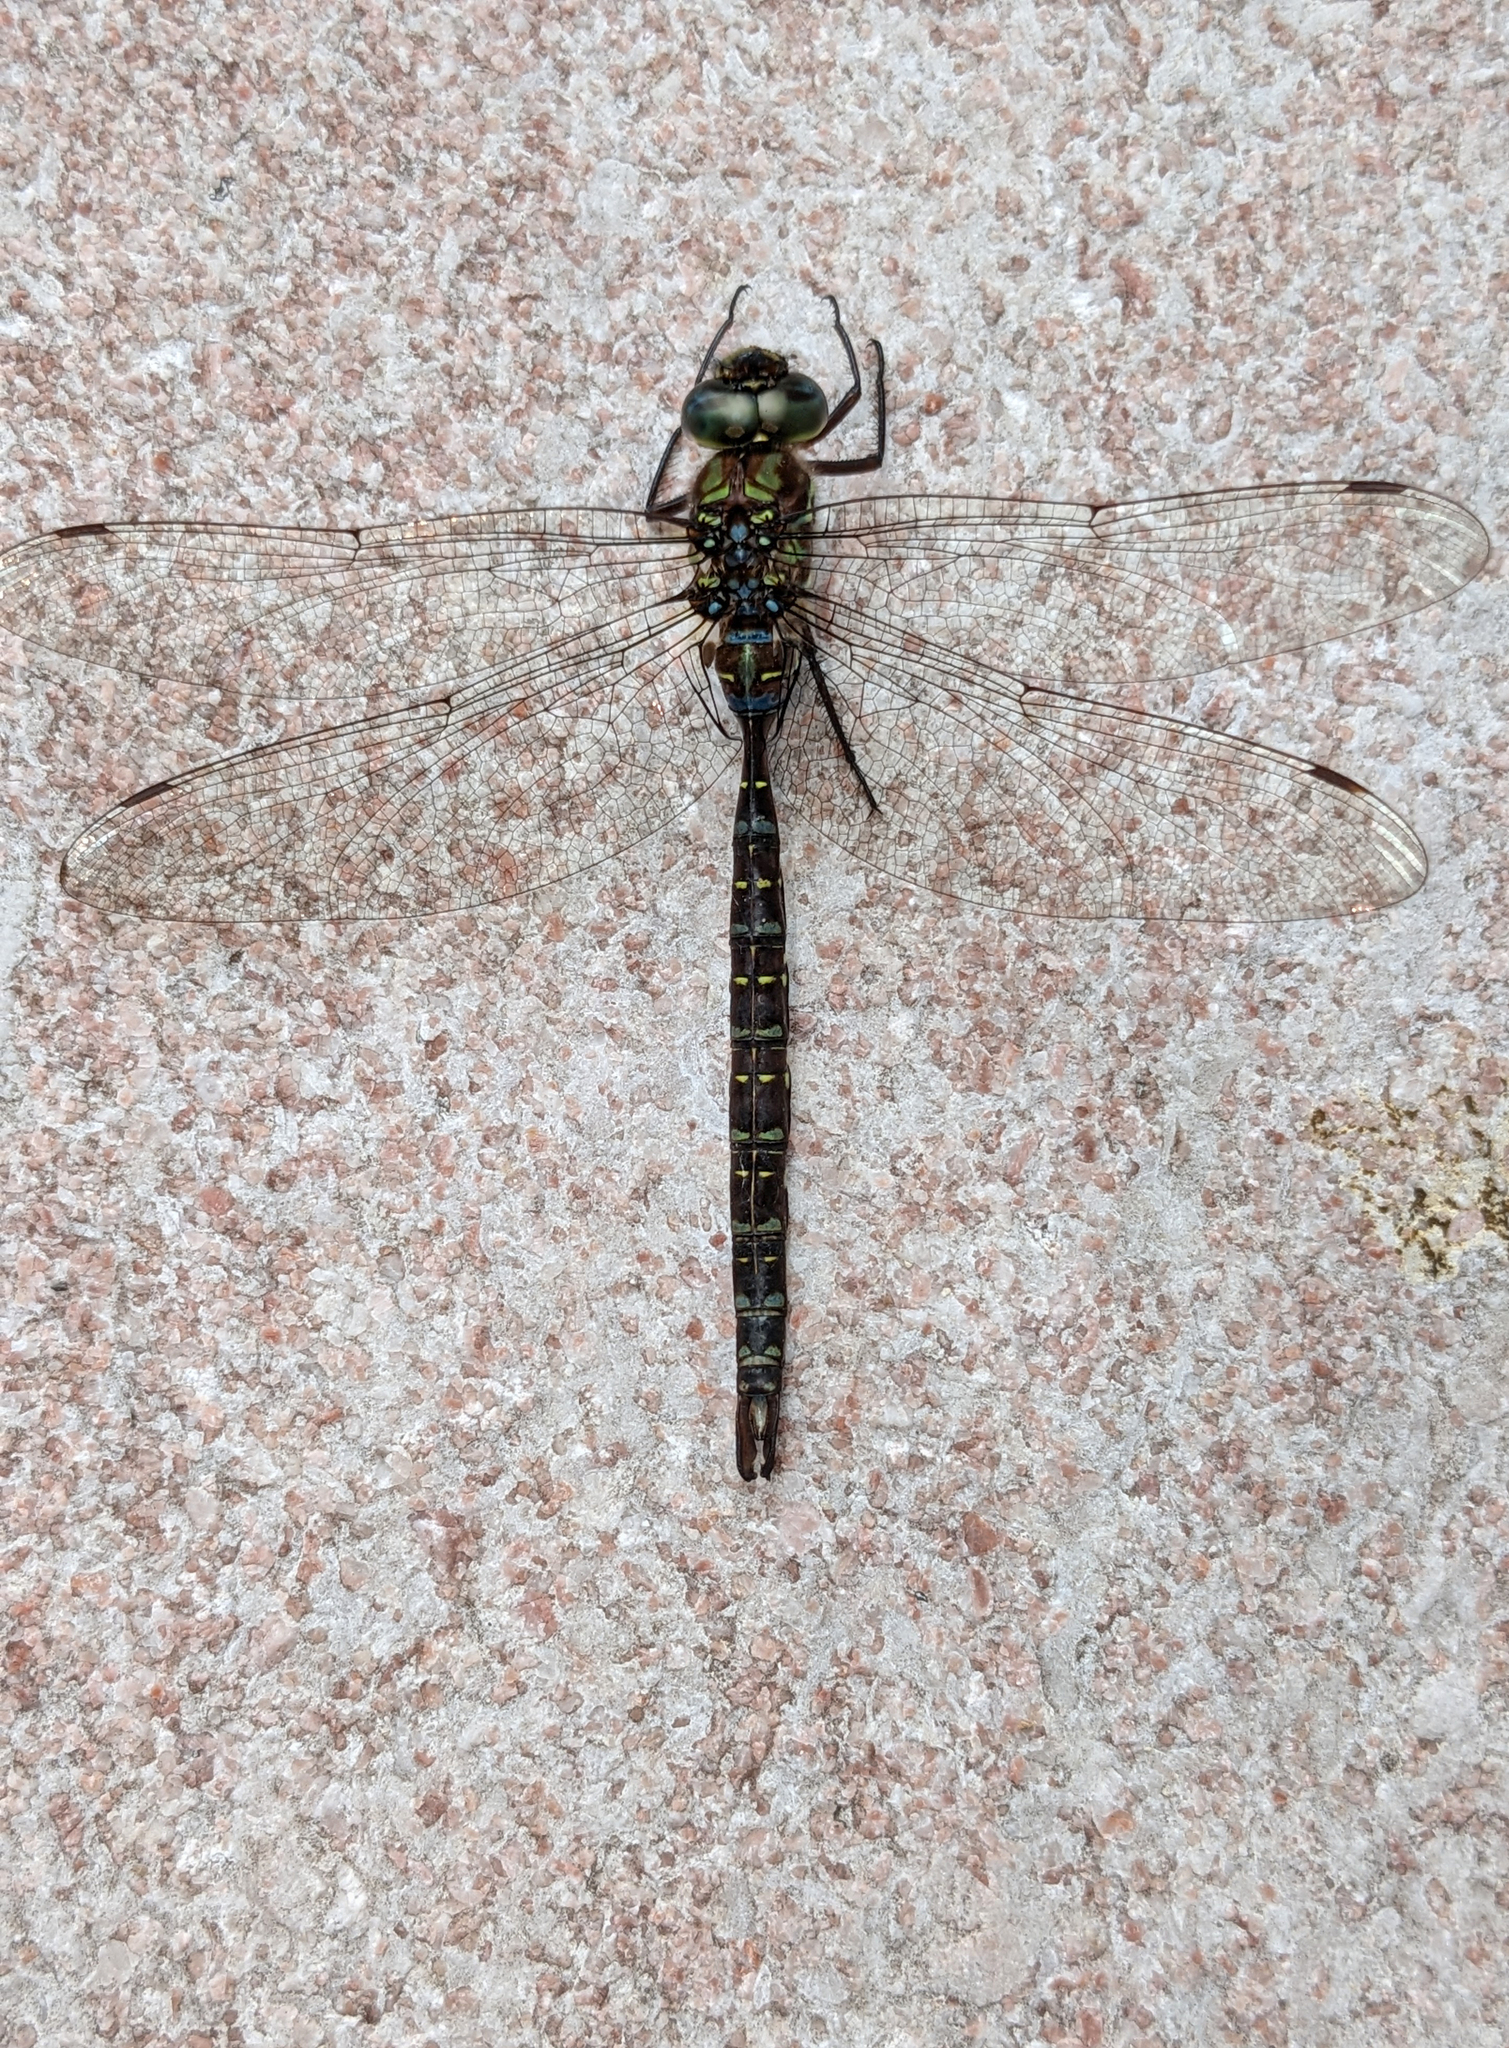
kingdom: Animalia
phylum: Arthropoda
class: Insecta
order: Odonata
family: Aeshnidae
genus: Aeshna
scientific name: Aeshna umbrosa
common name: Shadow darner
